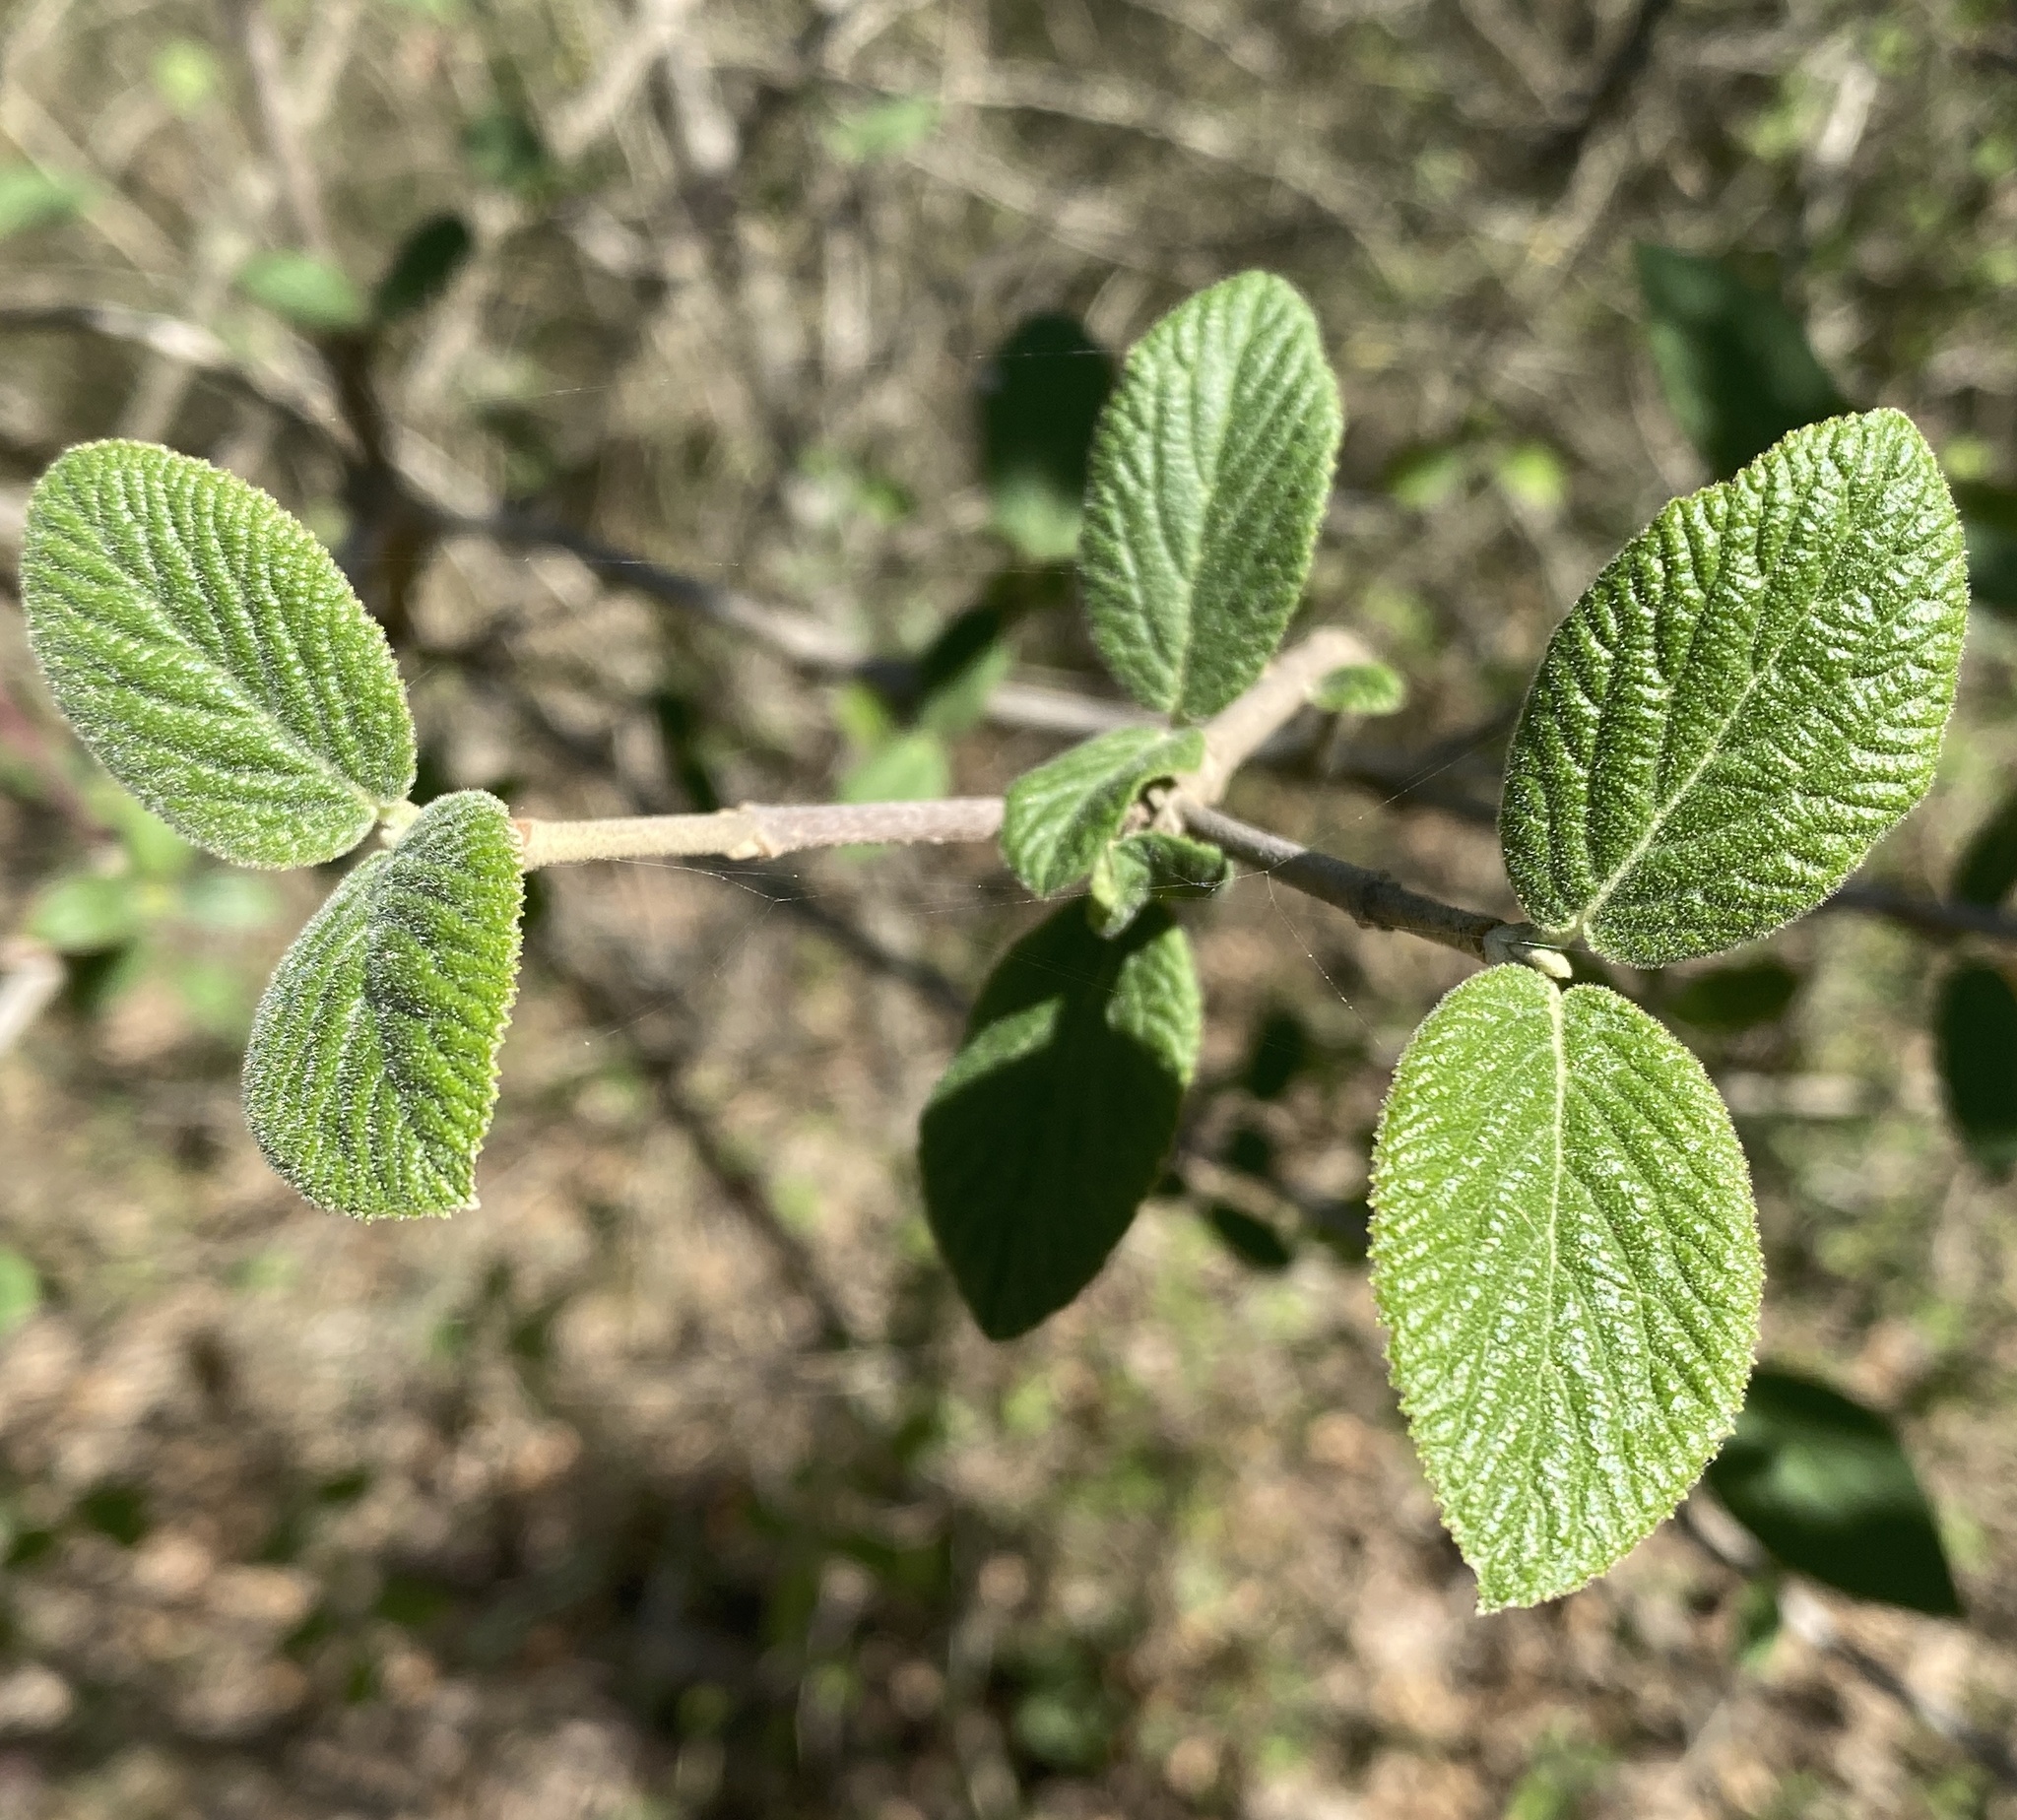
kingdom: Plantae
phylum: Tracheophyta
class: Magnoliopsida
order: Dipsacales
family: Viburnaceae
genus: Viburnum
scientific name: Viburnum lantana
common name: Wayfaring tree
